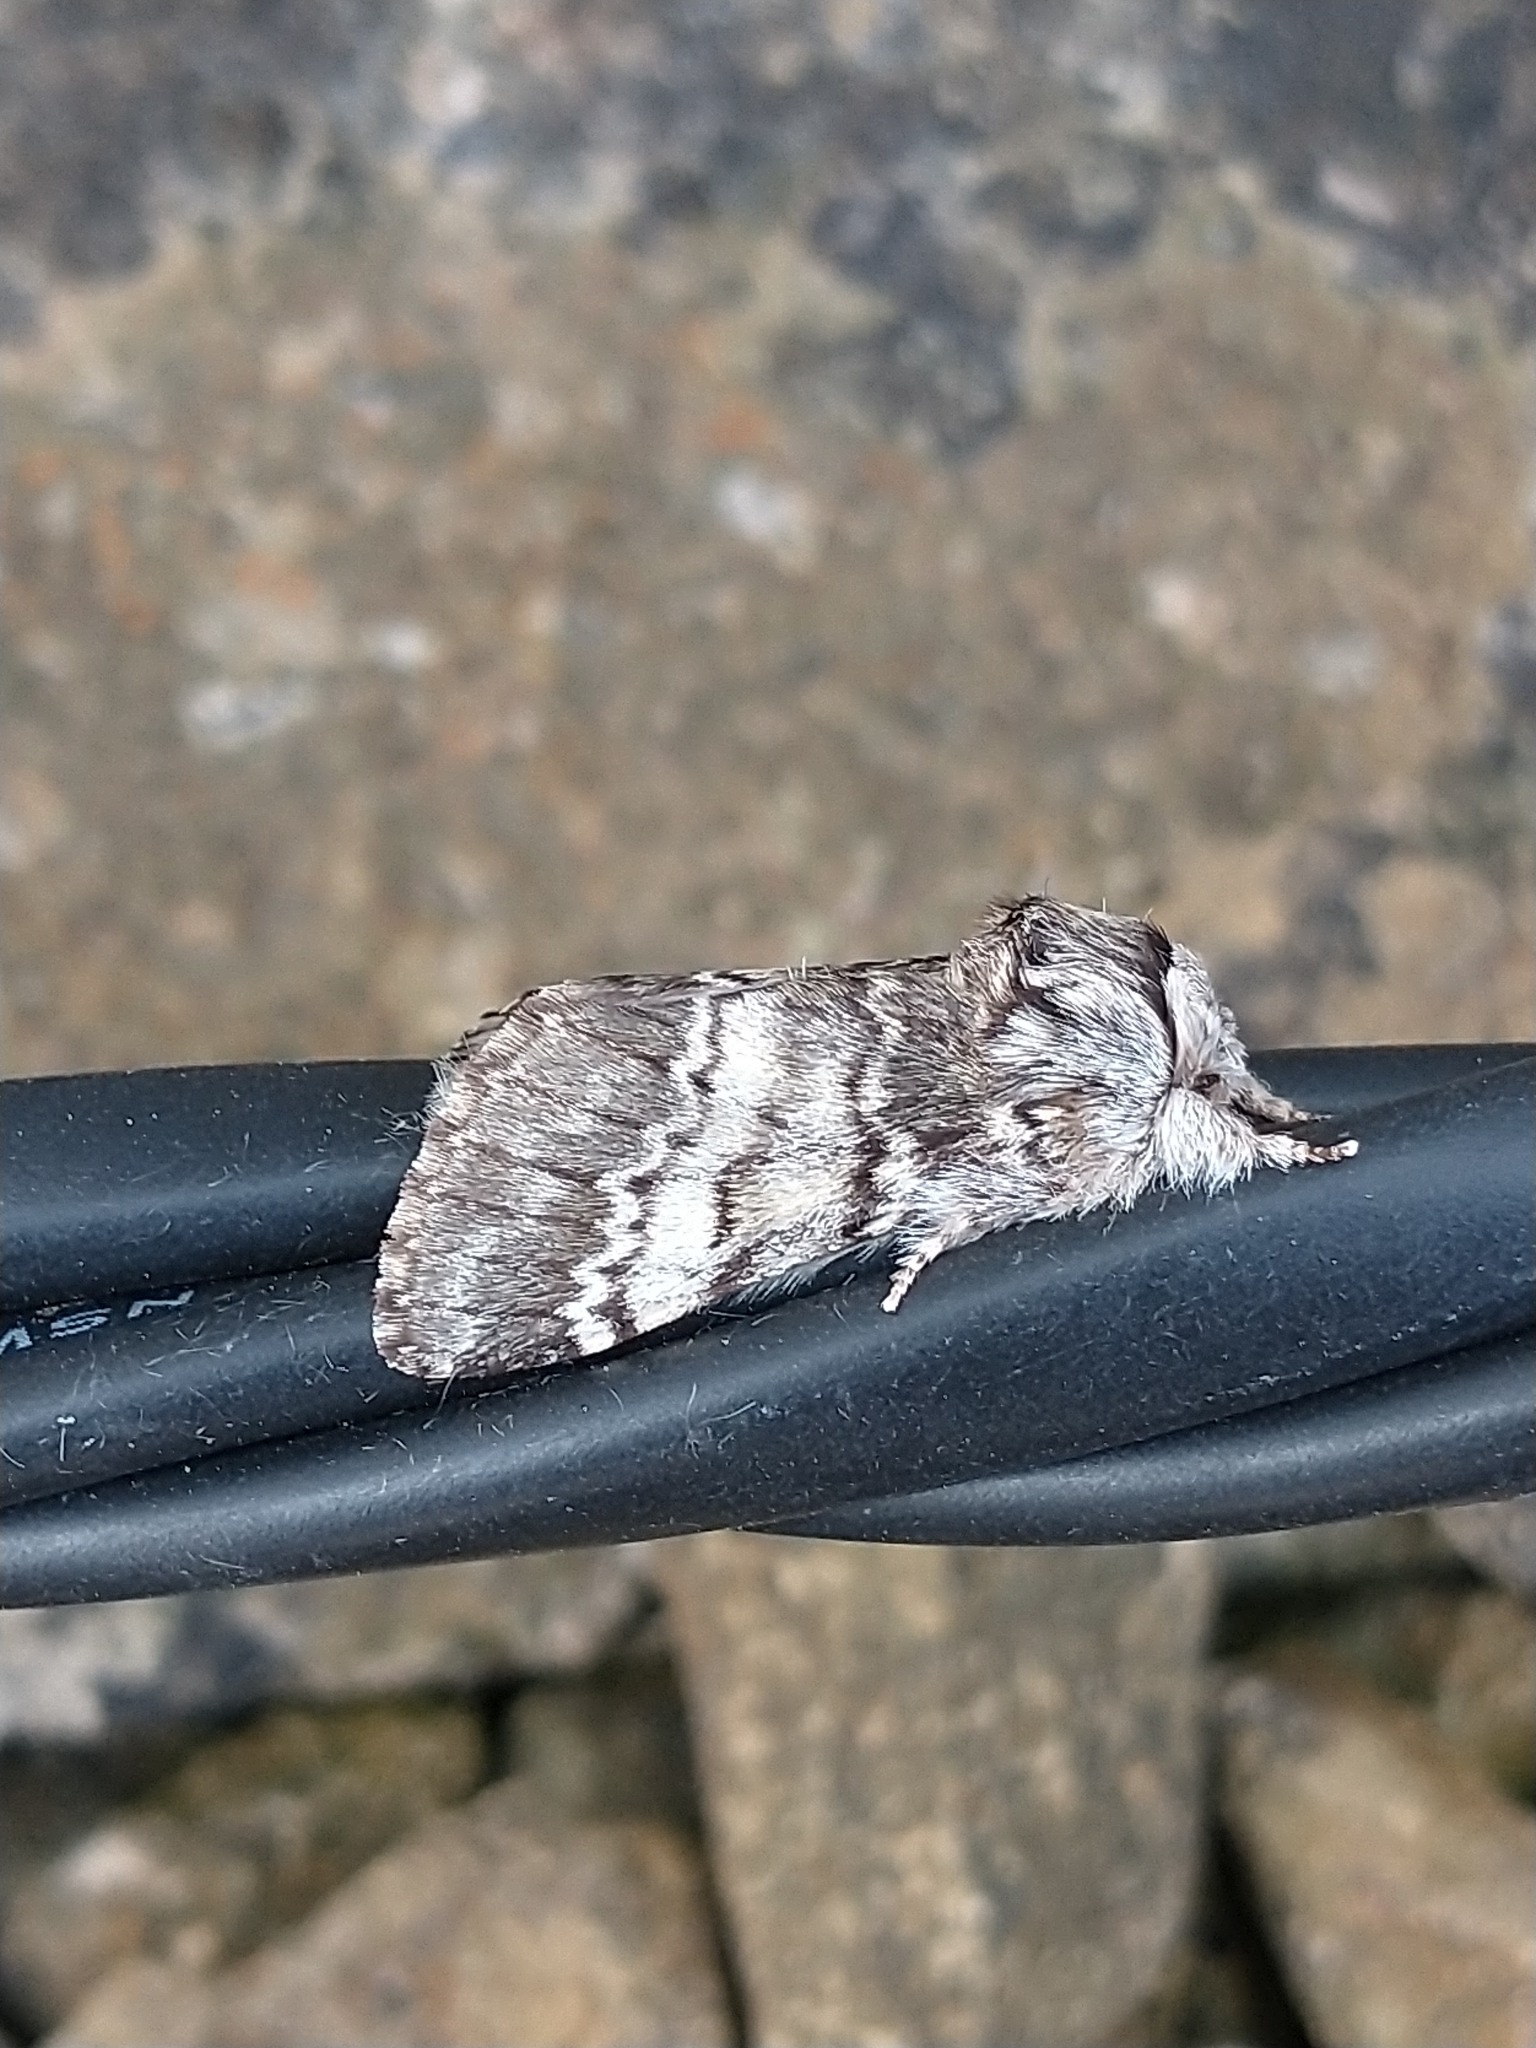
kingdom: Animalia
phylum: Arthropoda
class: Insecta
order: Lepidoptera
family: Notodontidae
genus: Drymonia
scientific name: Drymonia ruficornis
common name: Lunar marbled brown
